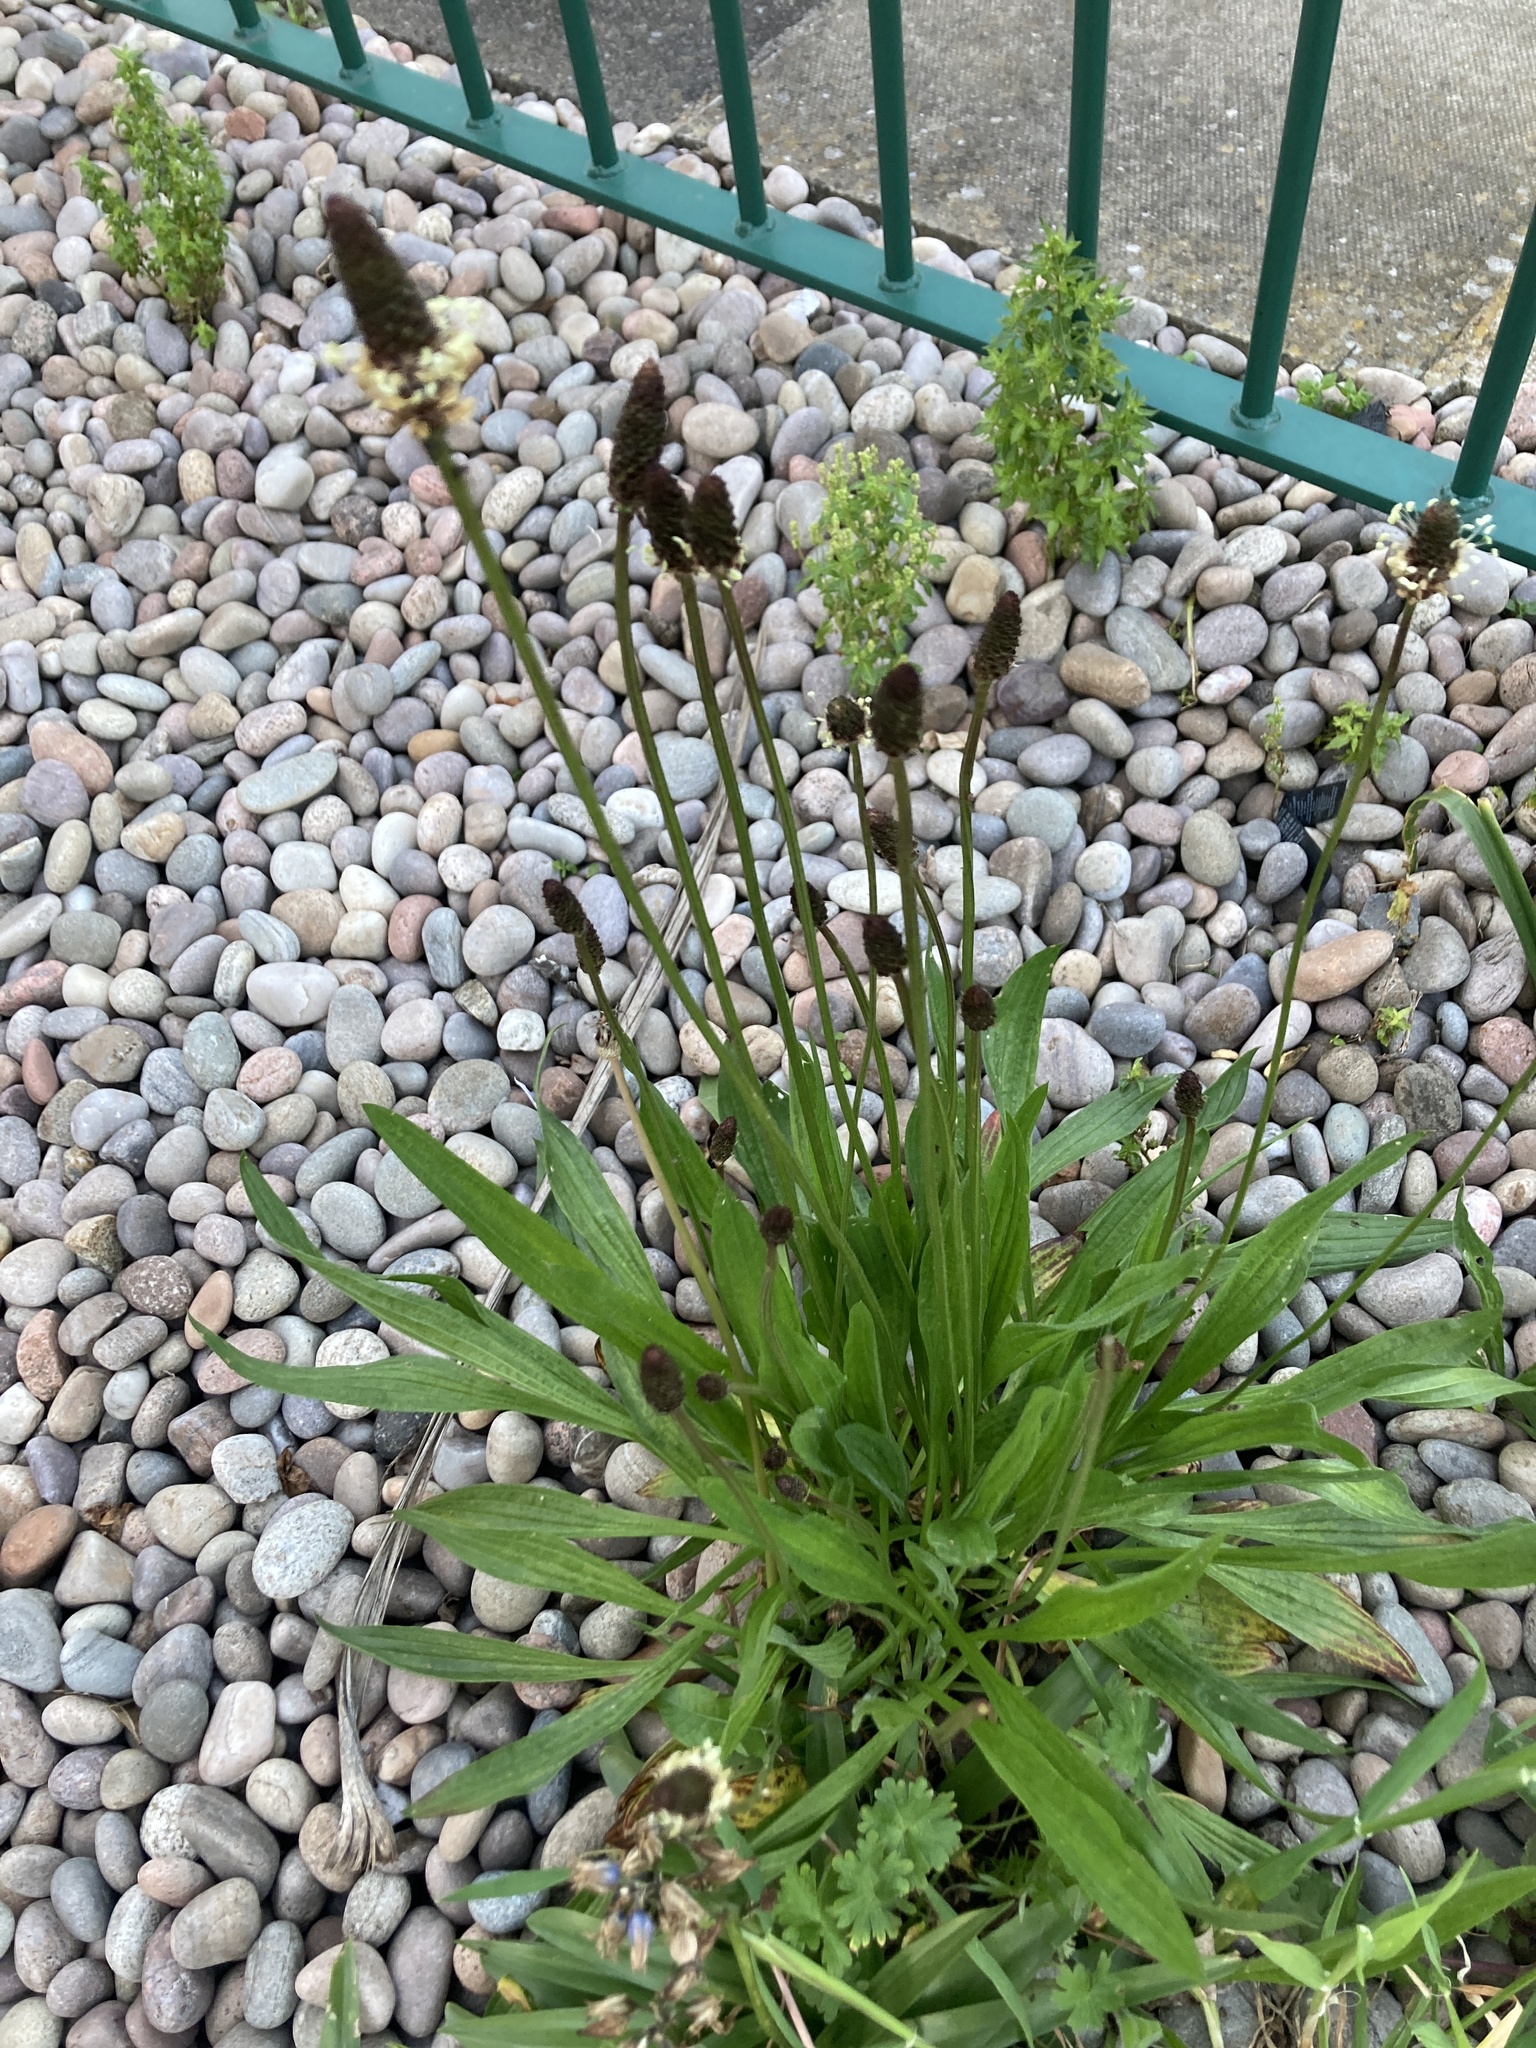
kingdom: Plantae
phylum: Tracheophyta
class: Magnoliopsida
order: Lamiales
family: Plantaginaceae
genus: Plantago
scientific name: Plantago lanceolata
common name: Ribwort plantain
